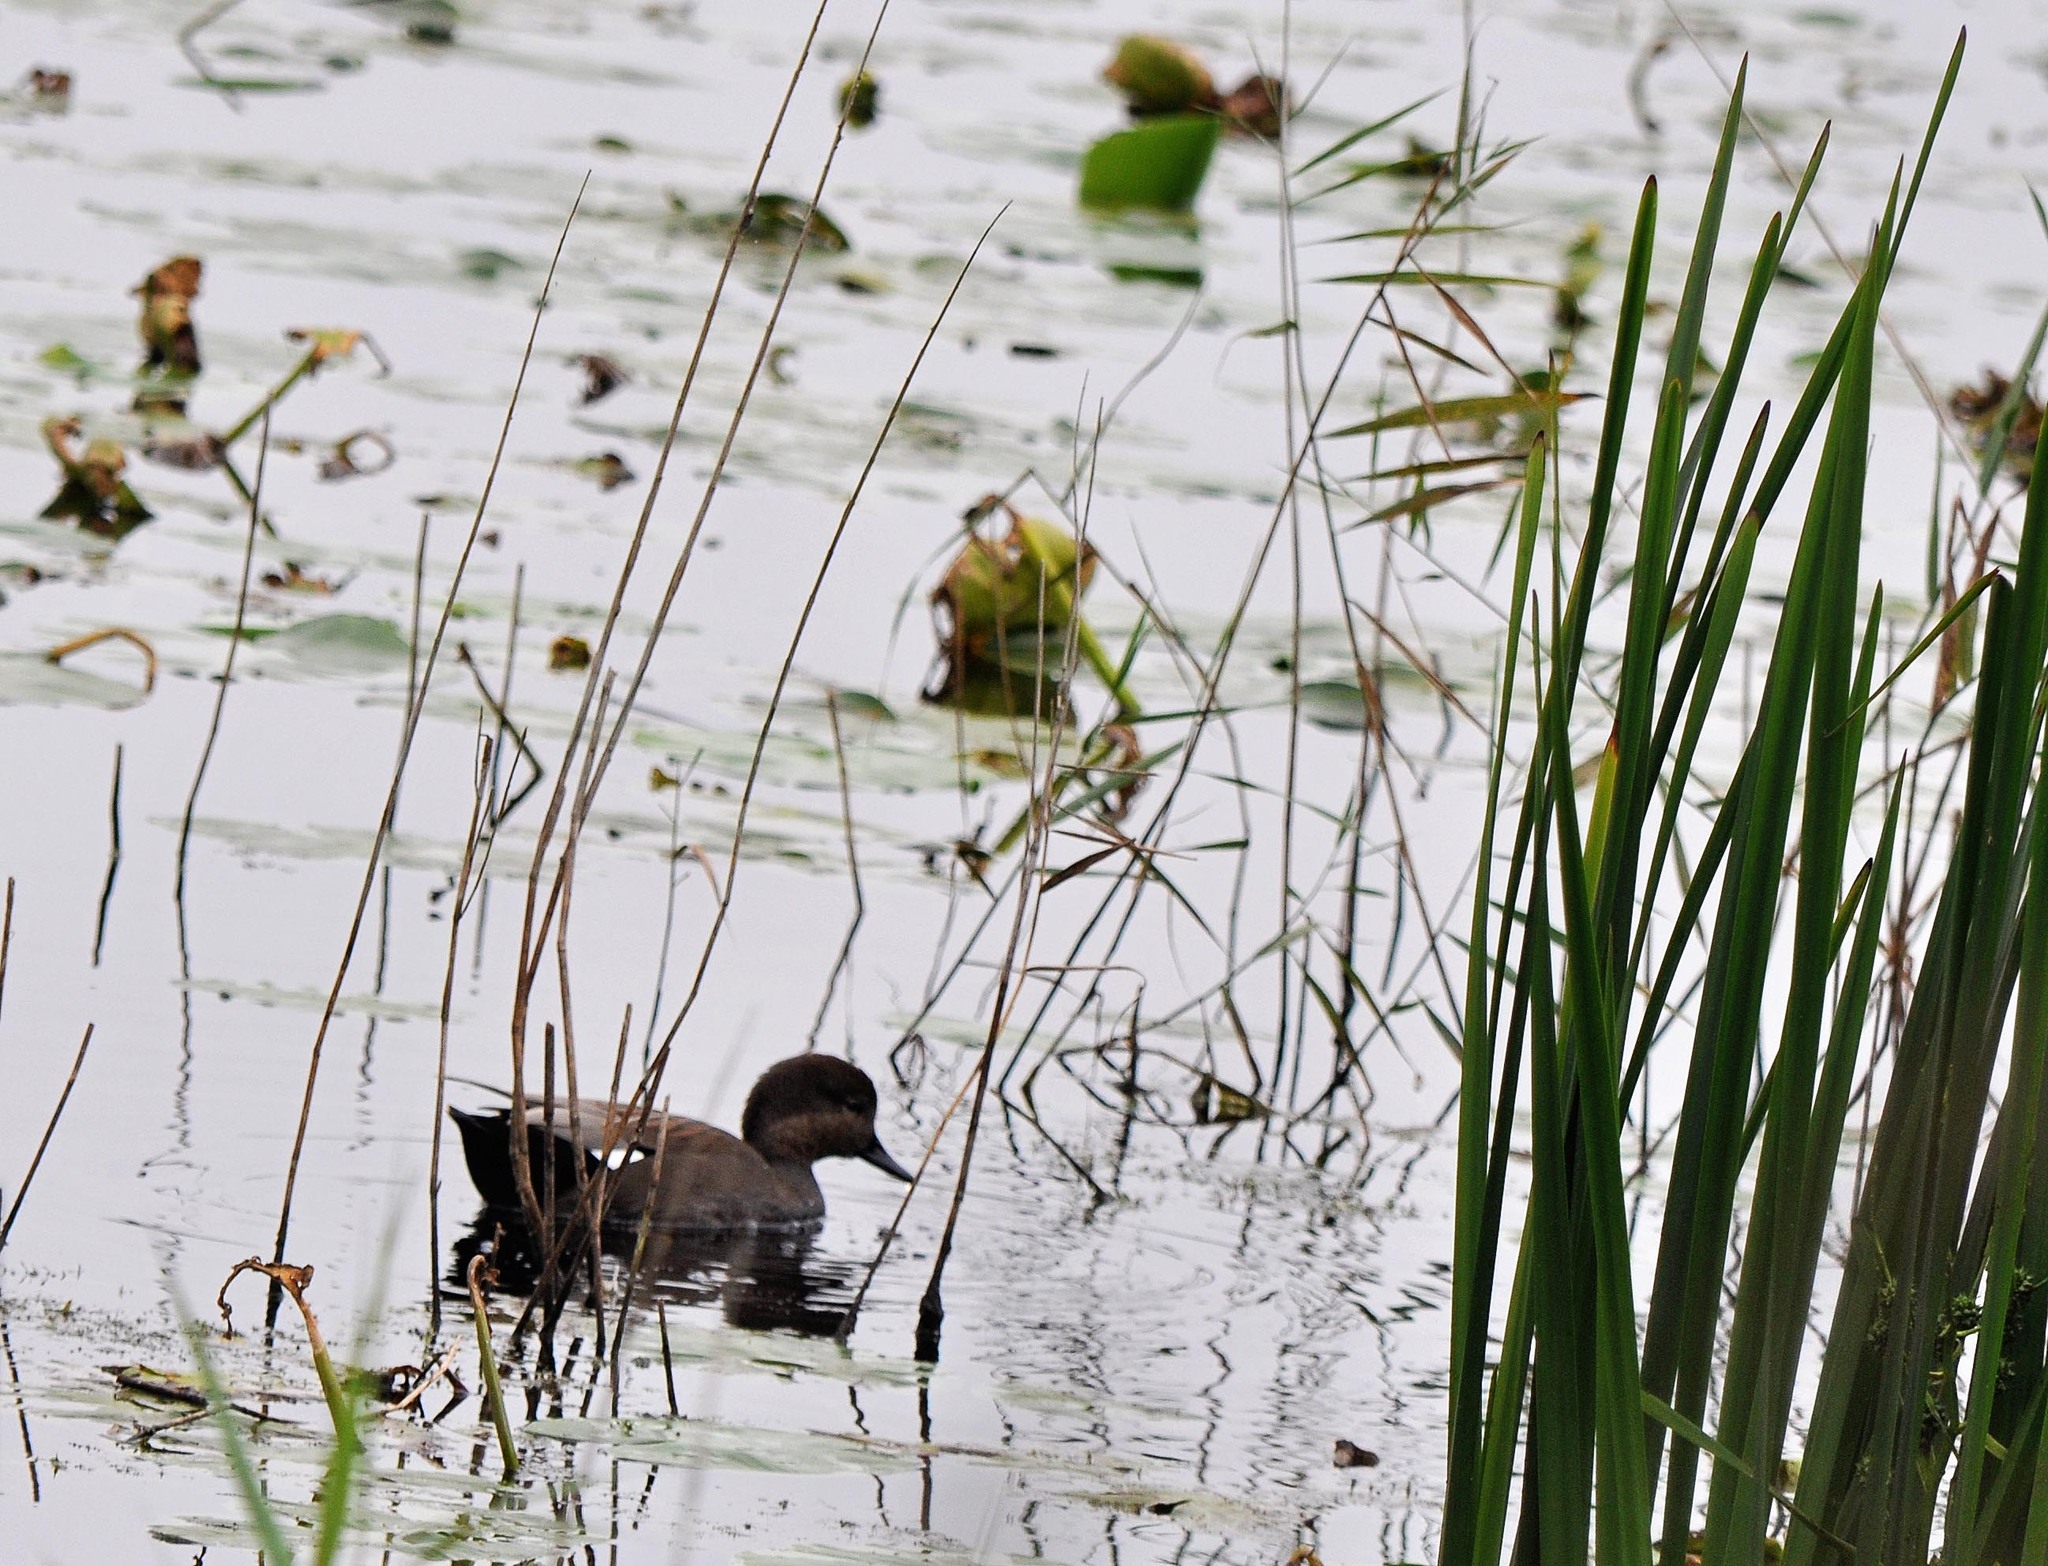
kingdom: Animalia
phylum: Chordata
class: Aves
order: Anseriformes
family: Anatidae
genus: Mareca
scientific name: Mareca strepera
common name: Gadwall
